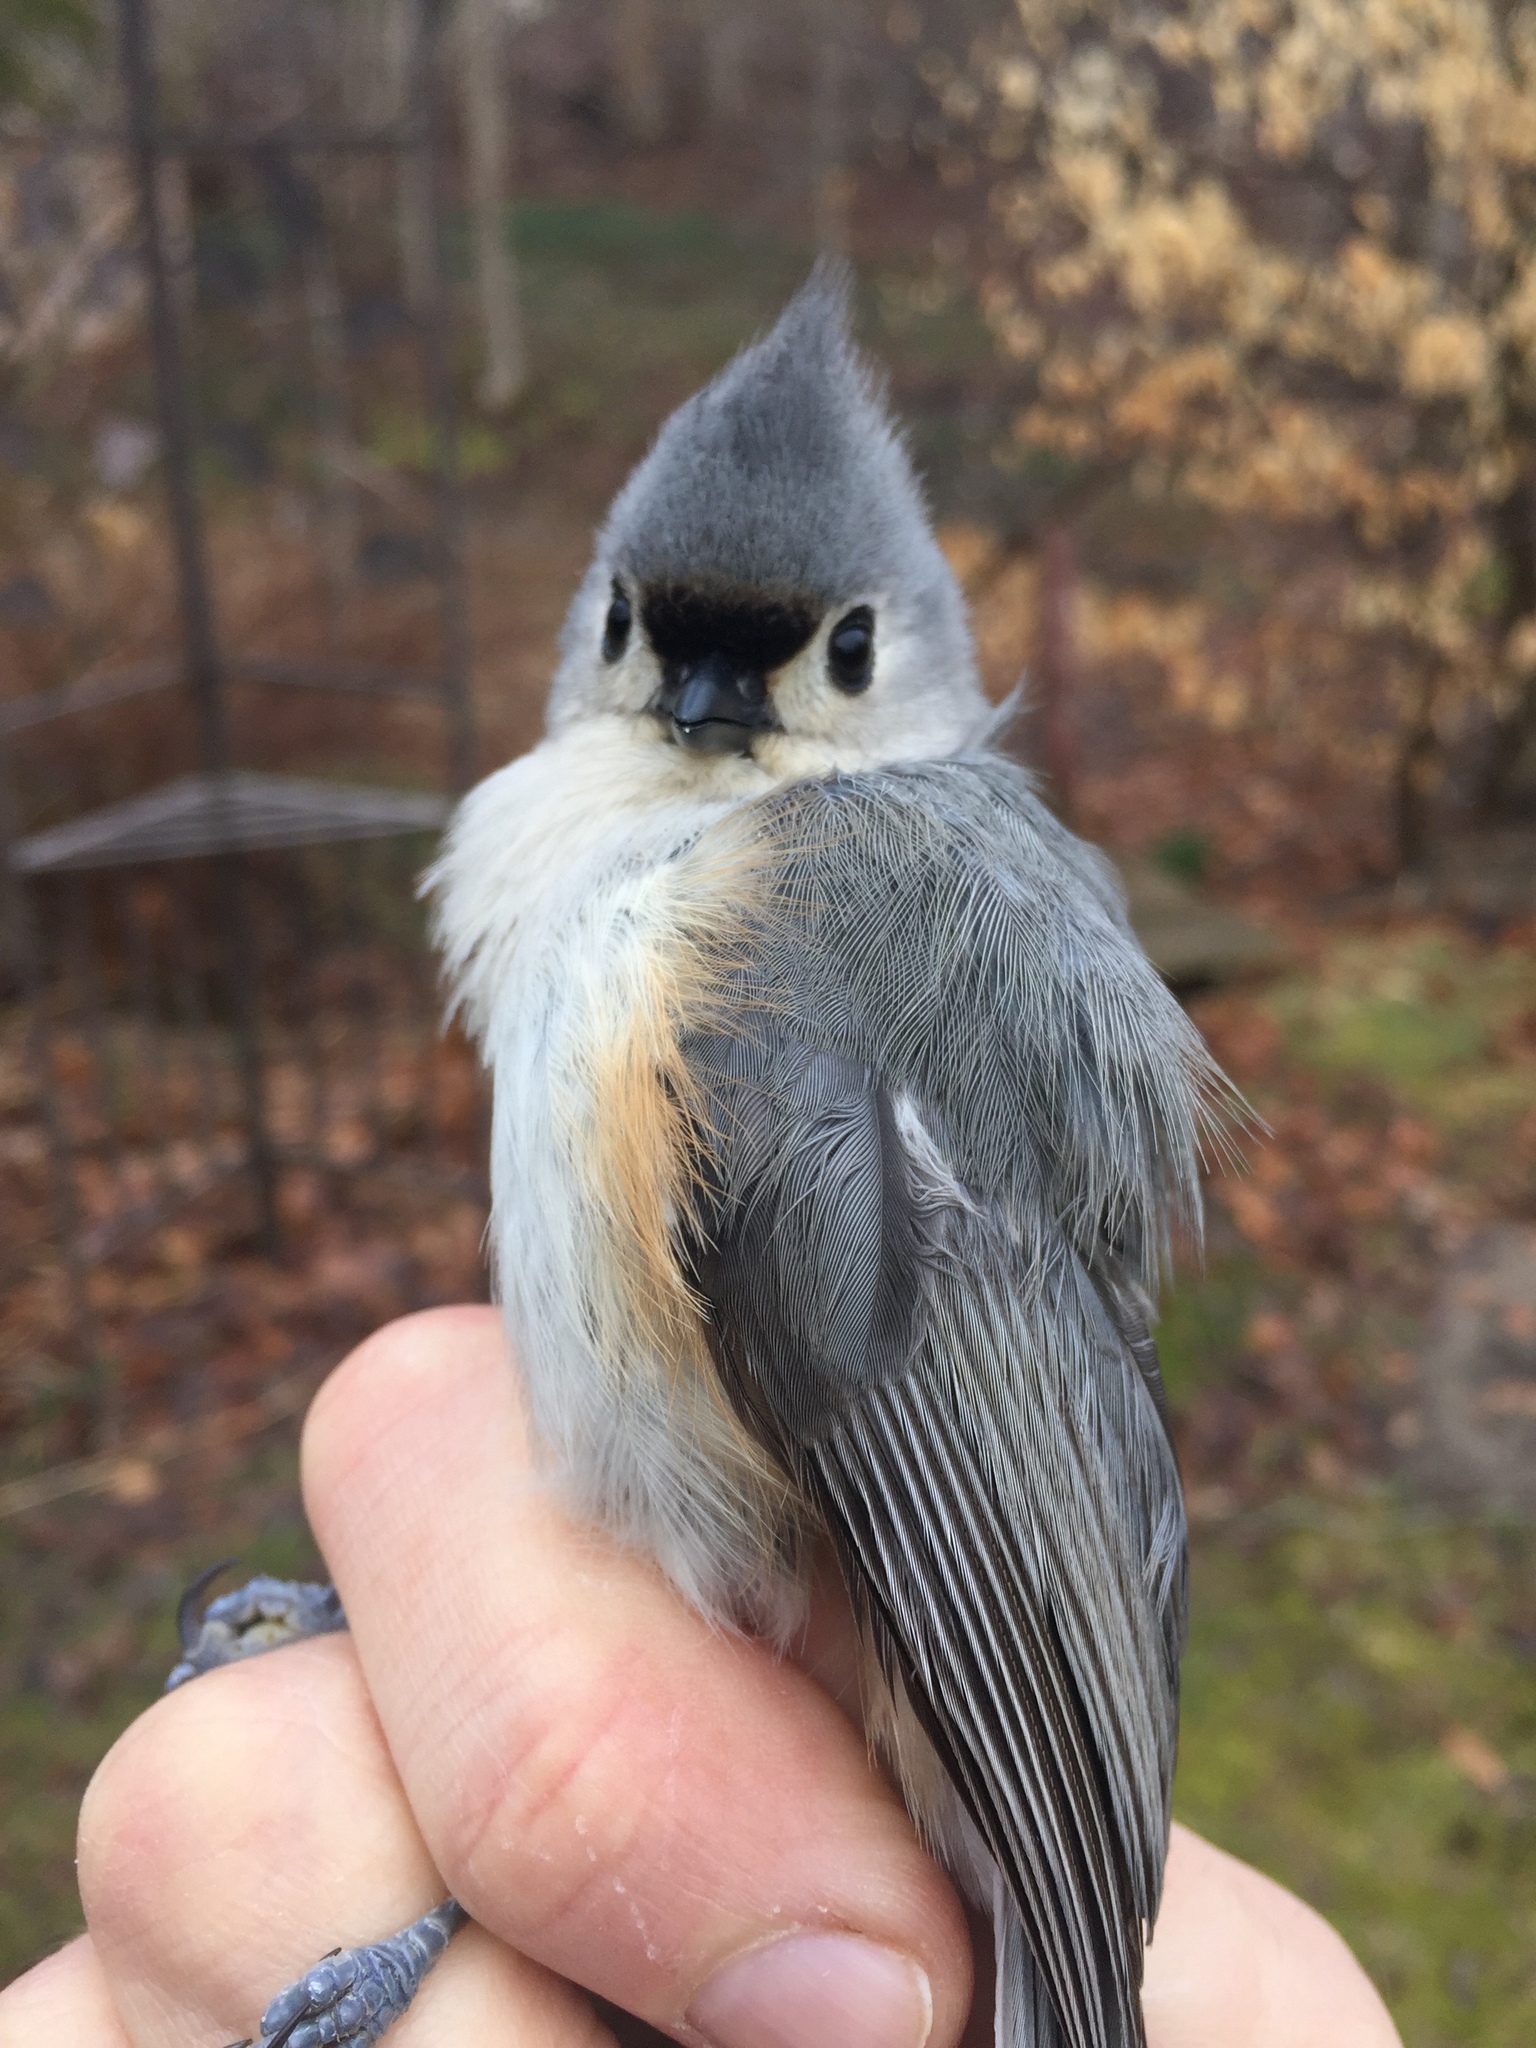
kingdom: Animalia
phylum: Chordata
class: Aves
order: Passeriformes
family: Paridae
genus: Baeolophus
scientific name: Baeolophus bicolor
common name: Tufted titmouse
